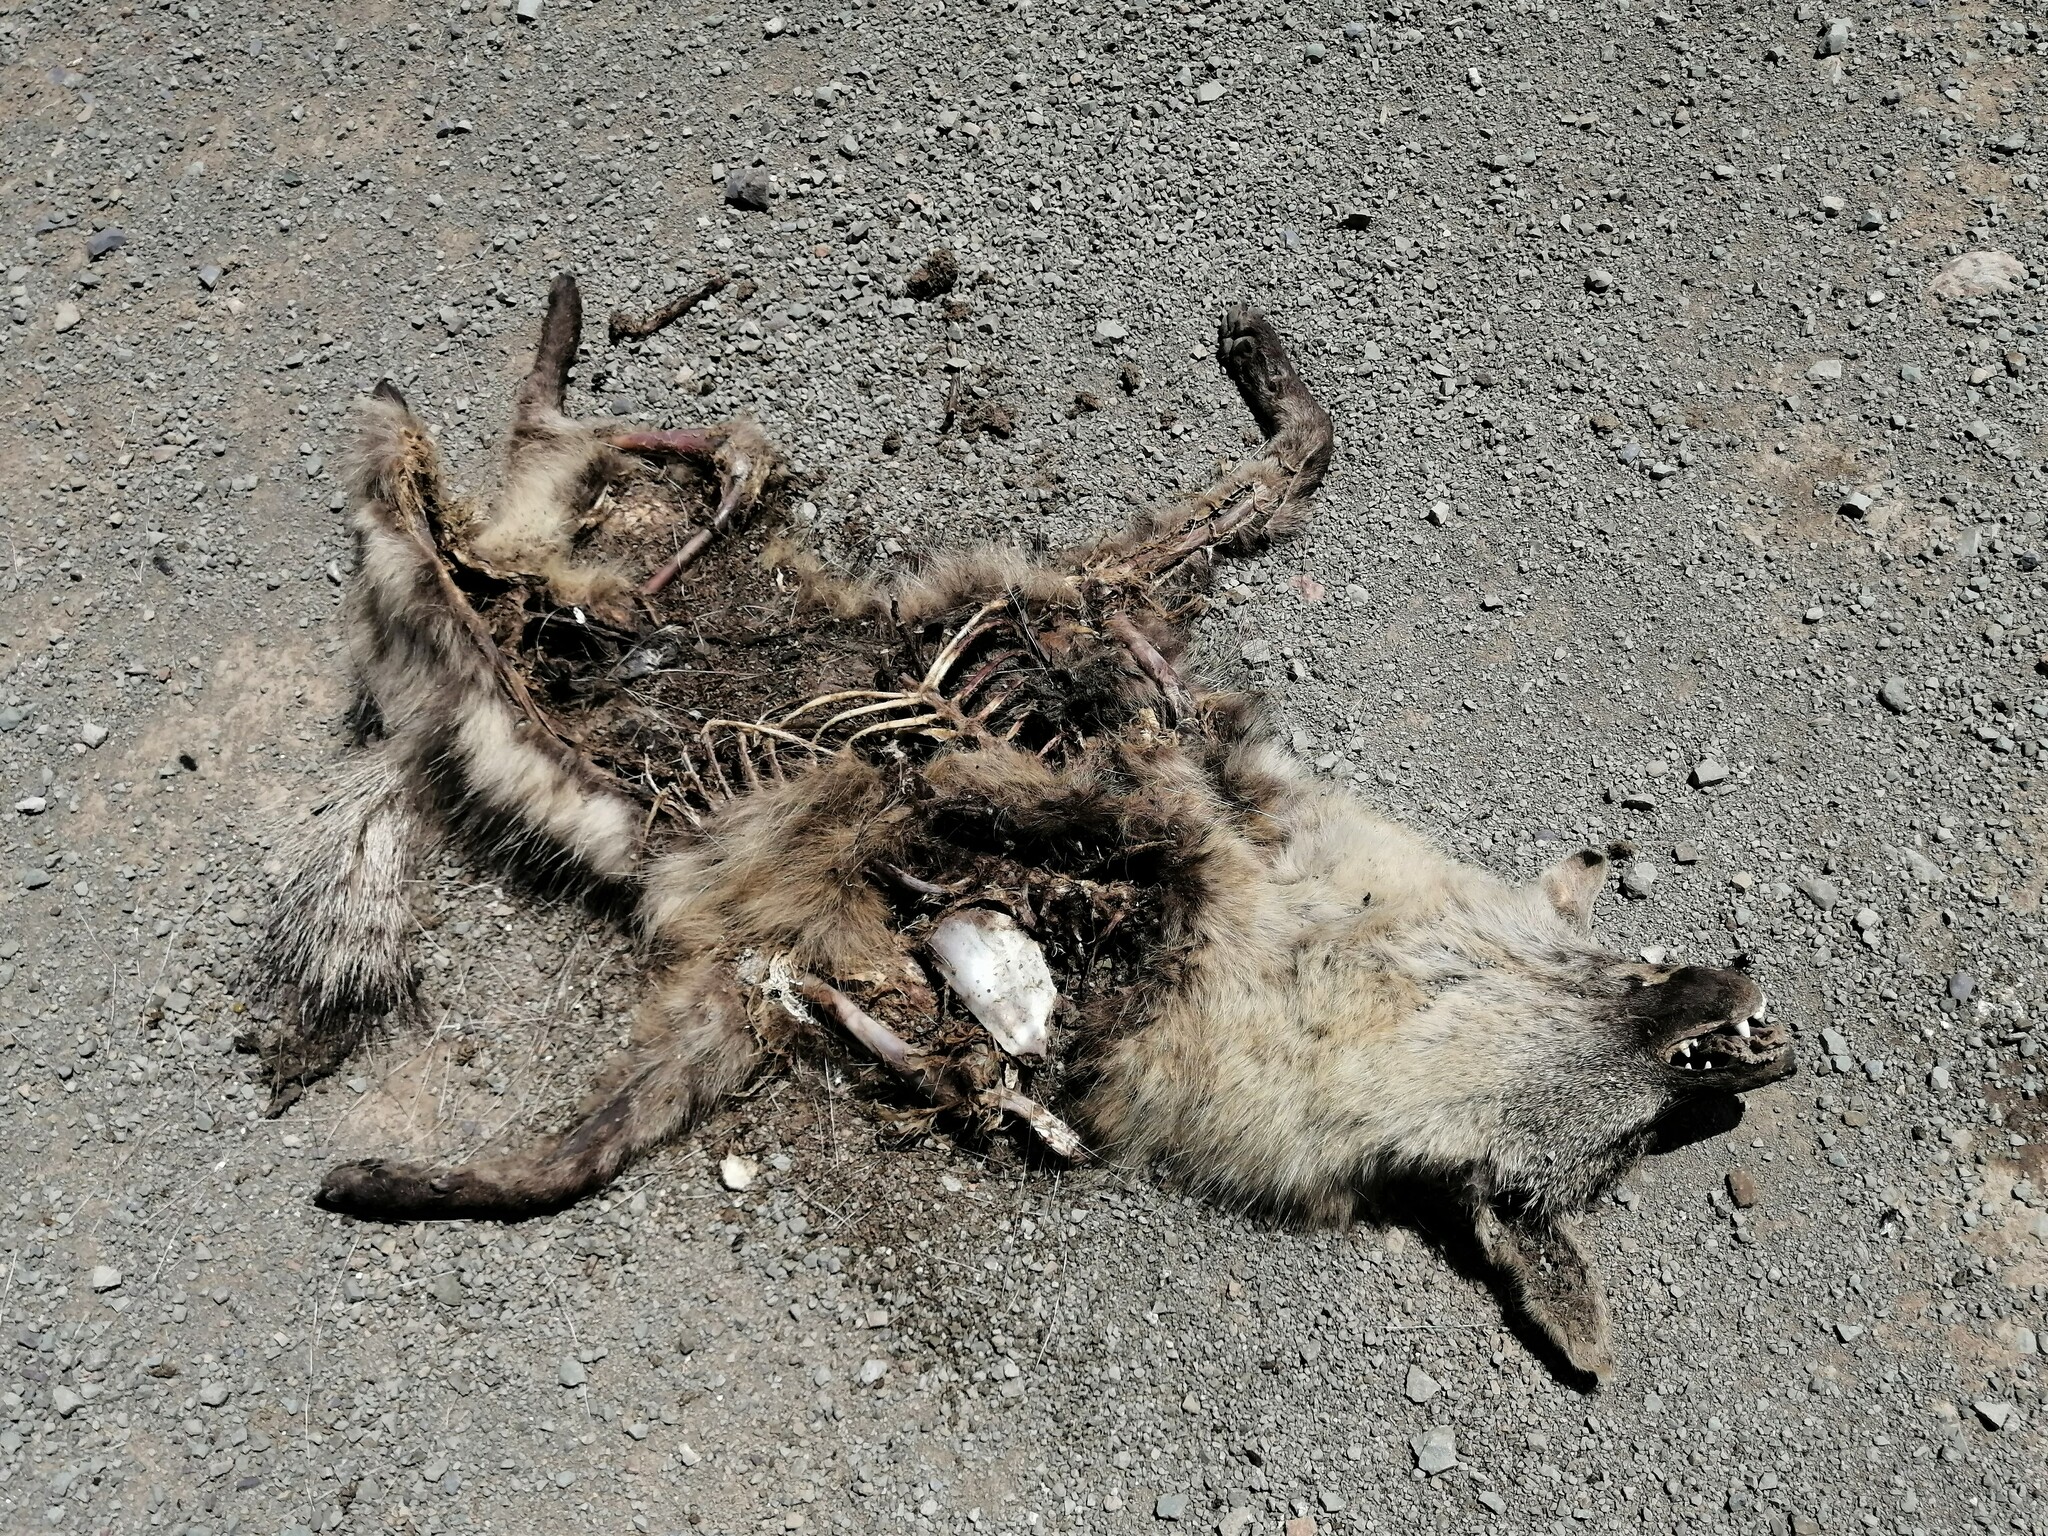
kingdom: Animalia
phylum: Chordata
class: Mammalia
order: Carnivora
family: Hyaenidae
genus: Proteles
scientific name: Proteles cristata
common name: Aardwolf
